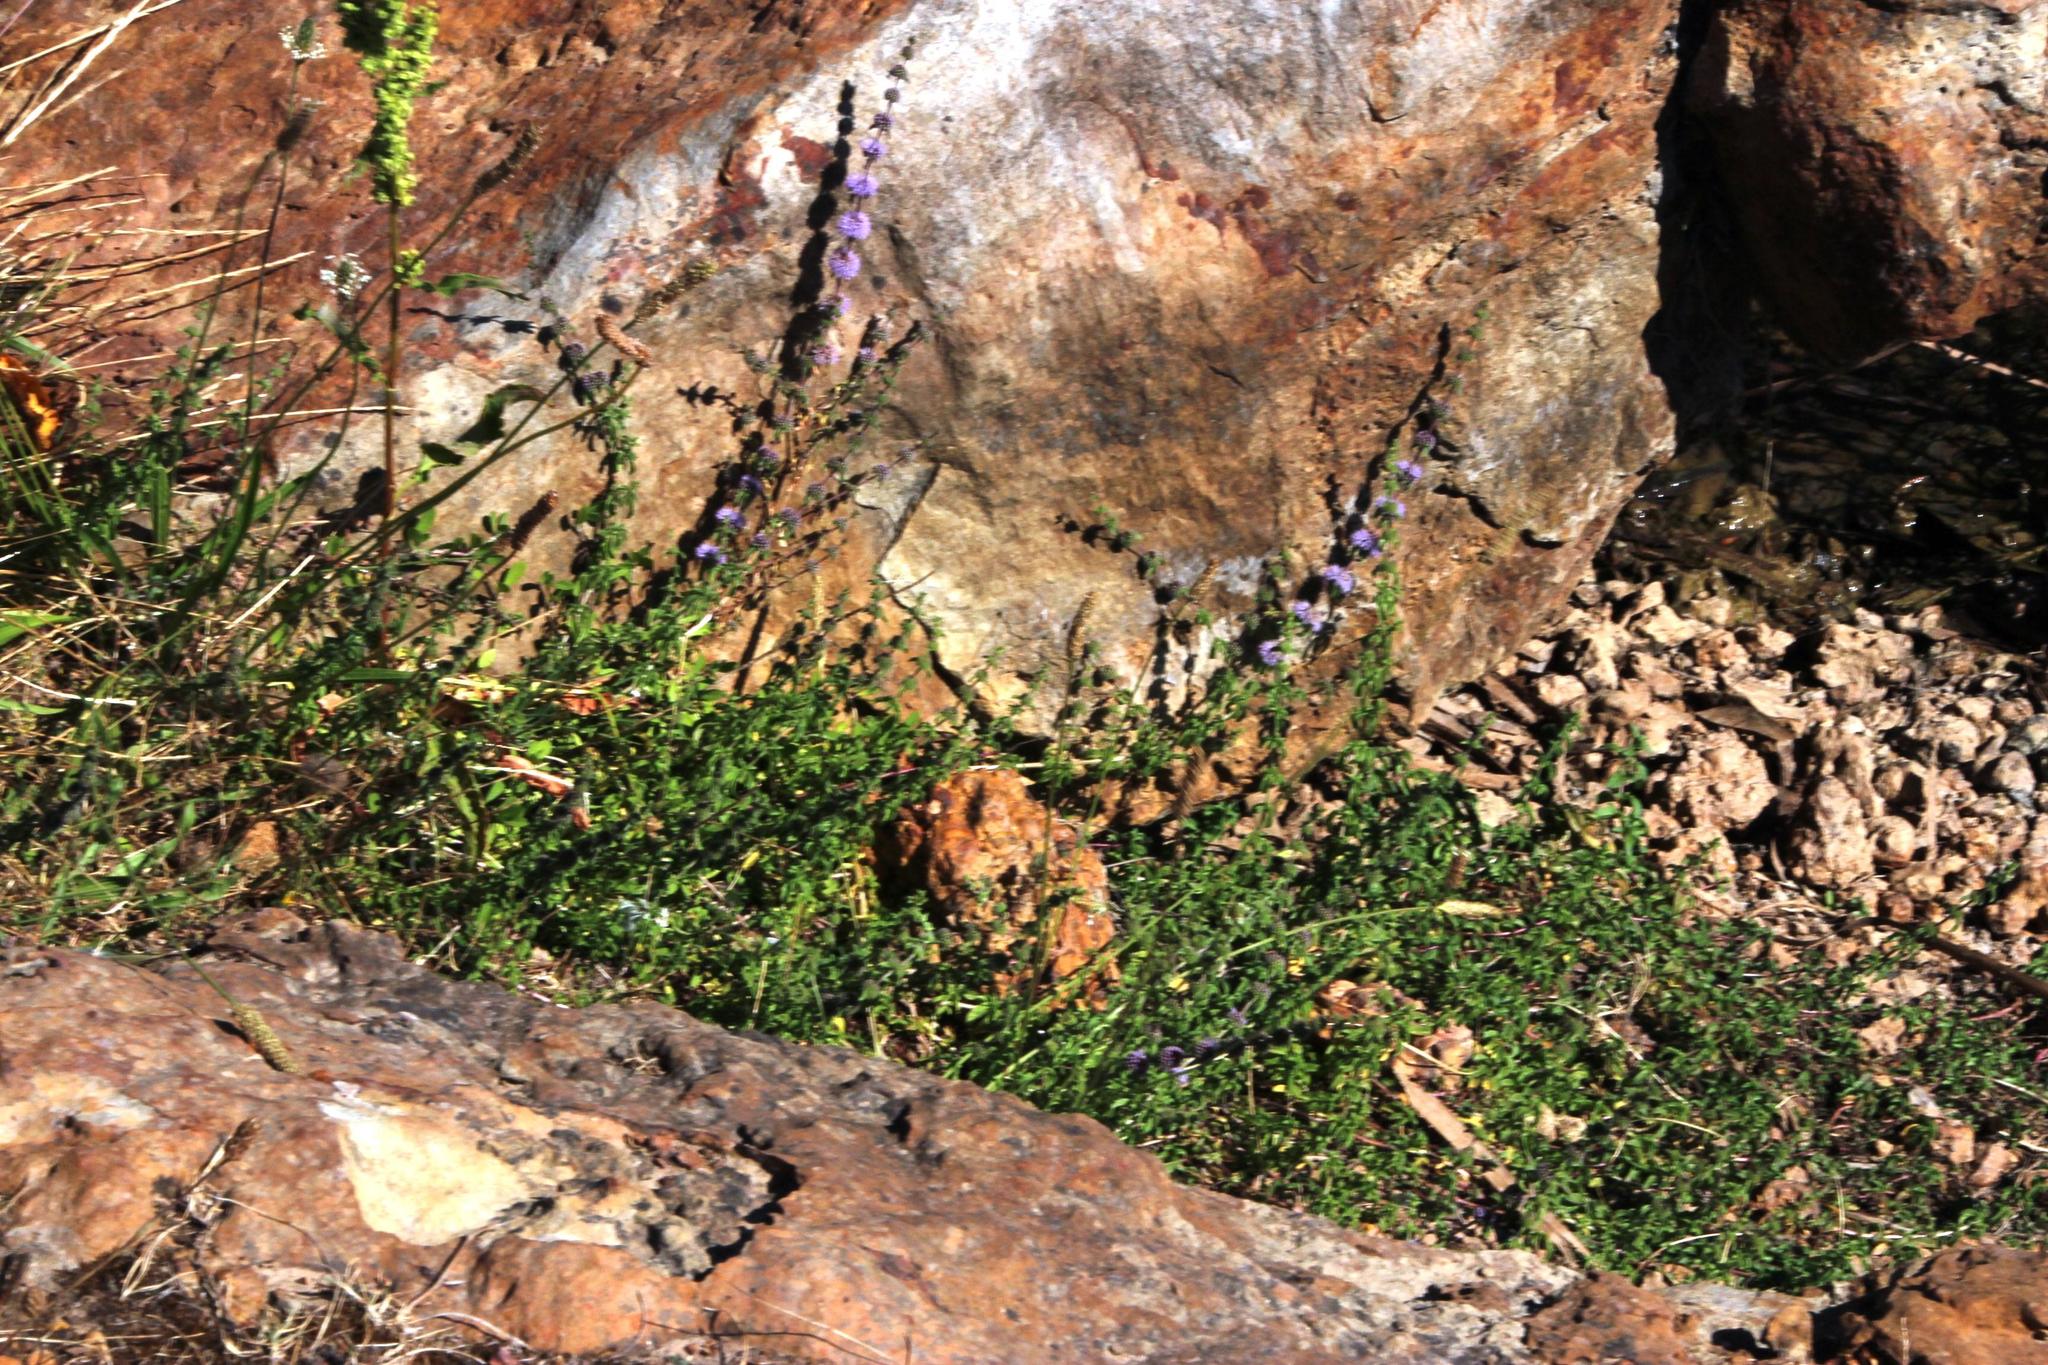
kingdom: Plantae
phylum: Tracheophyta
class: Magnoliopsida
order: Lamiales
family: Lamiaceae
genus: Mentha
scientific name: Mentha pulegium
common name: Pennyroyal
